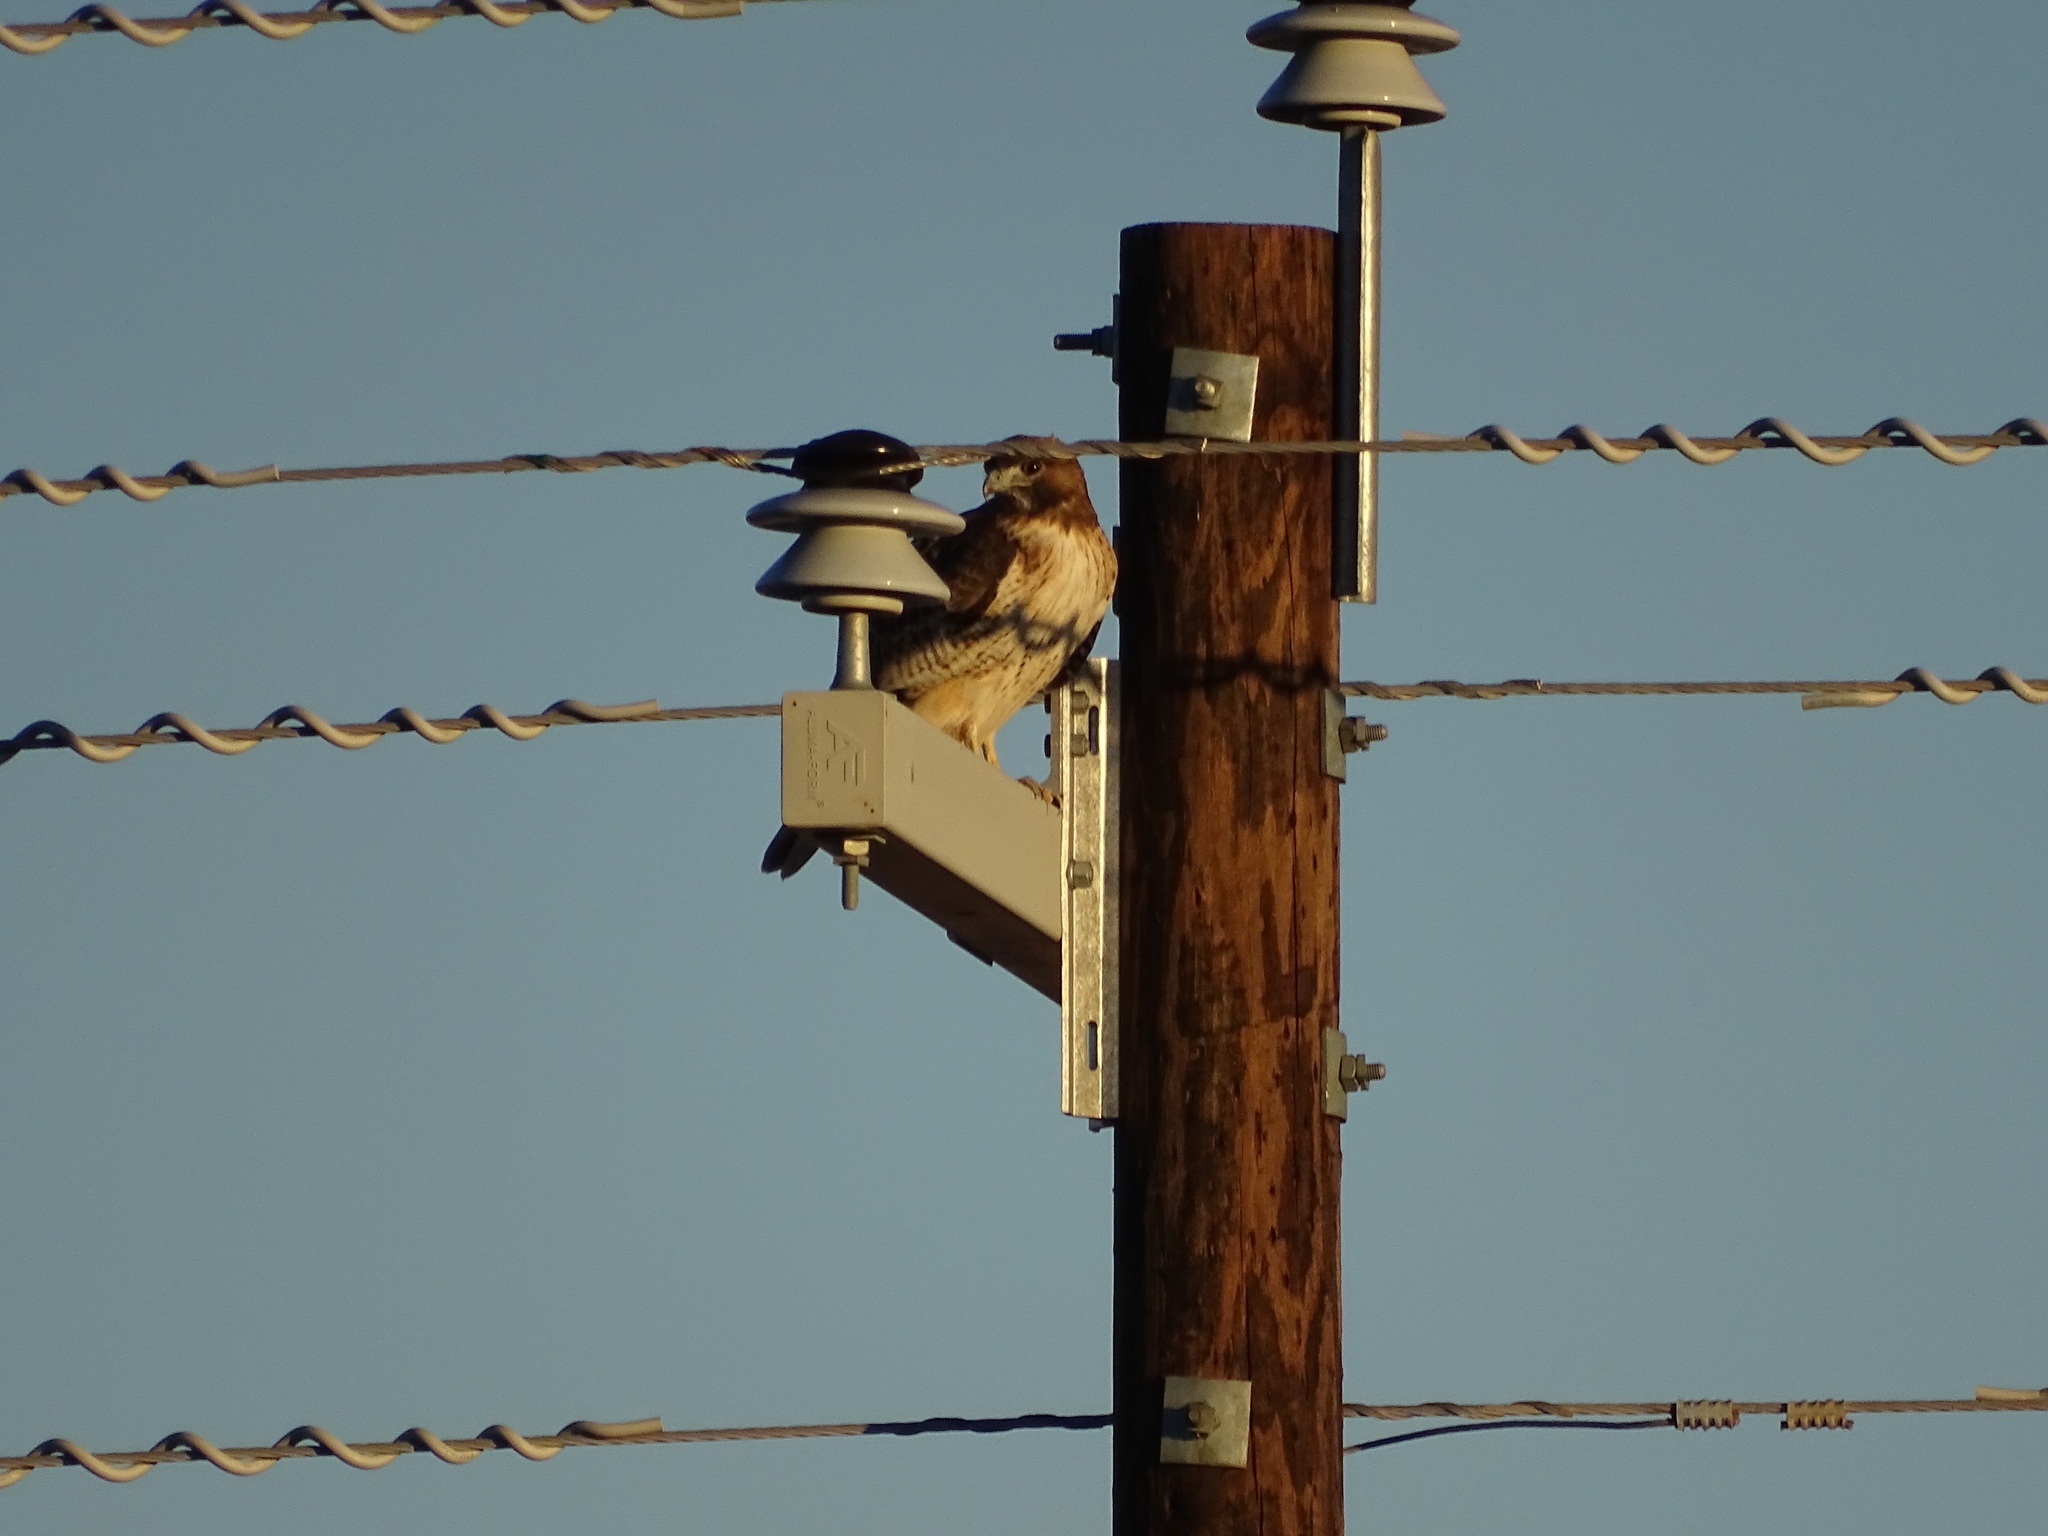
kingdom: Animalia
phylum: Chordata
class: Aves
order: Accipitriformes
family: Accipitridae
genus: Buteo
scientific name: Buteo jamaicensis
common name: Red-tailed hawk
